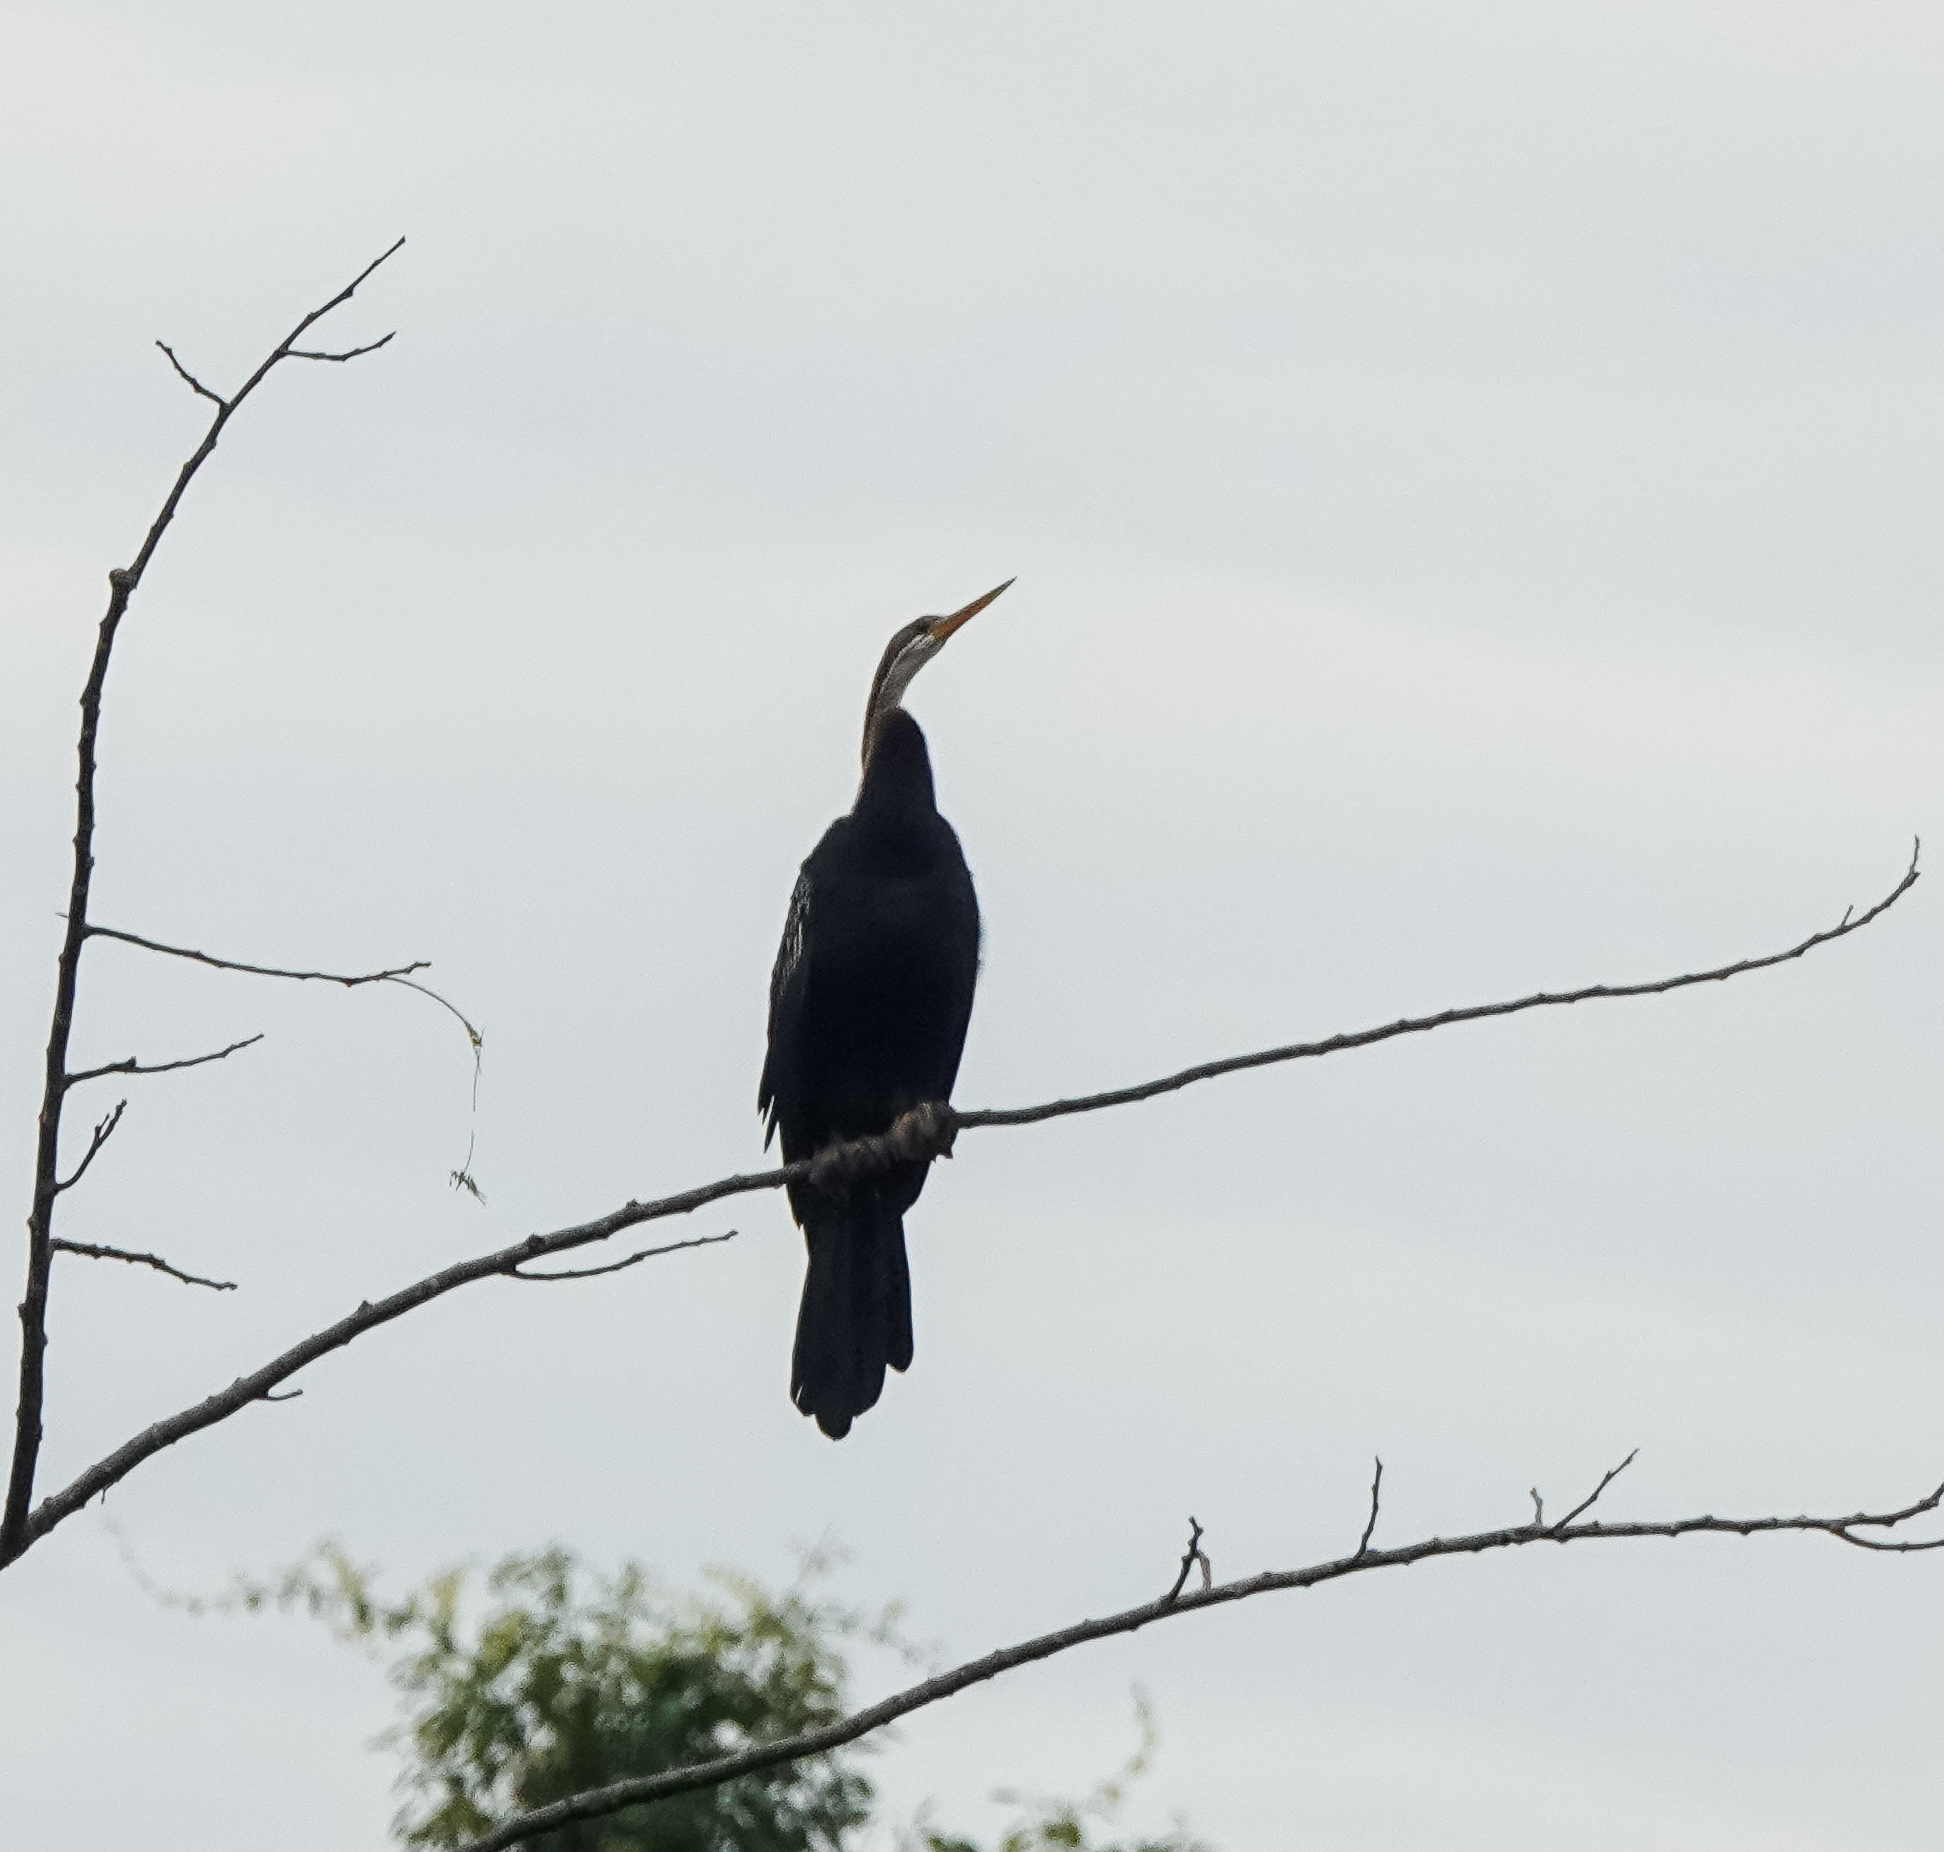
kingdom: Animalia
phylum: Chordata
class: Aves
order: Suliformes
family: Anhingidae
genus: Anhinga
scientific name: Anhinga melanogaster
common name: Oriental darter
